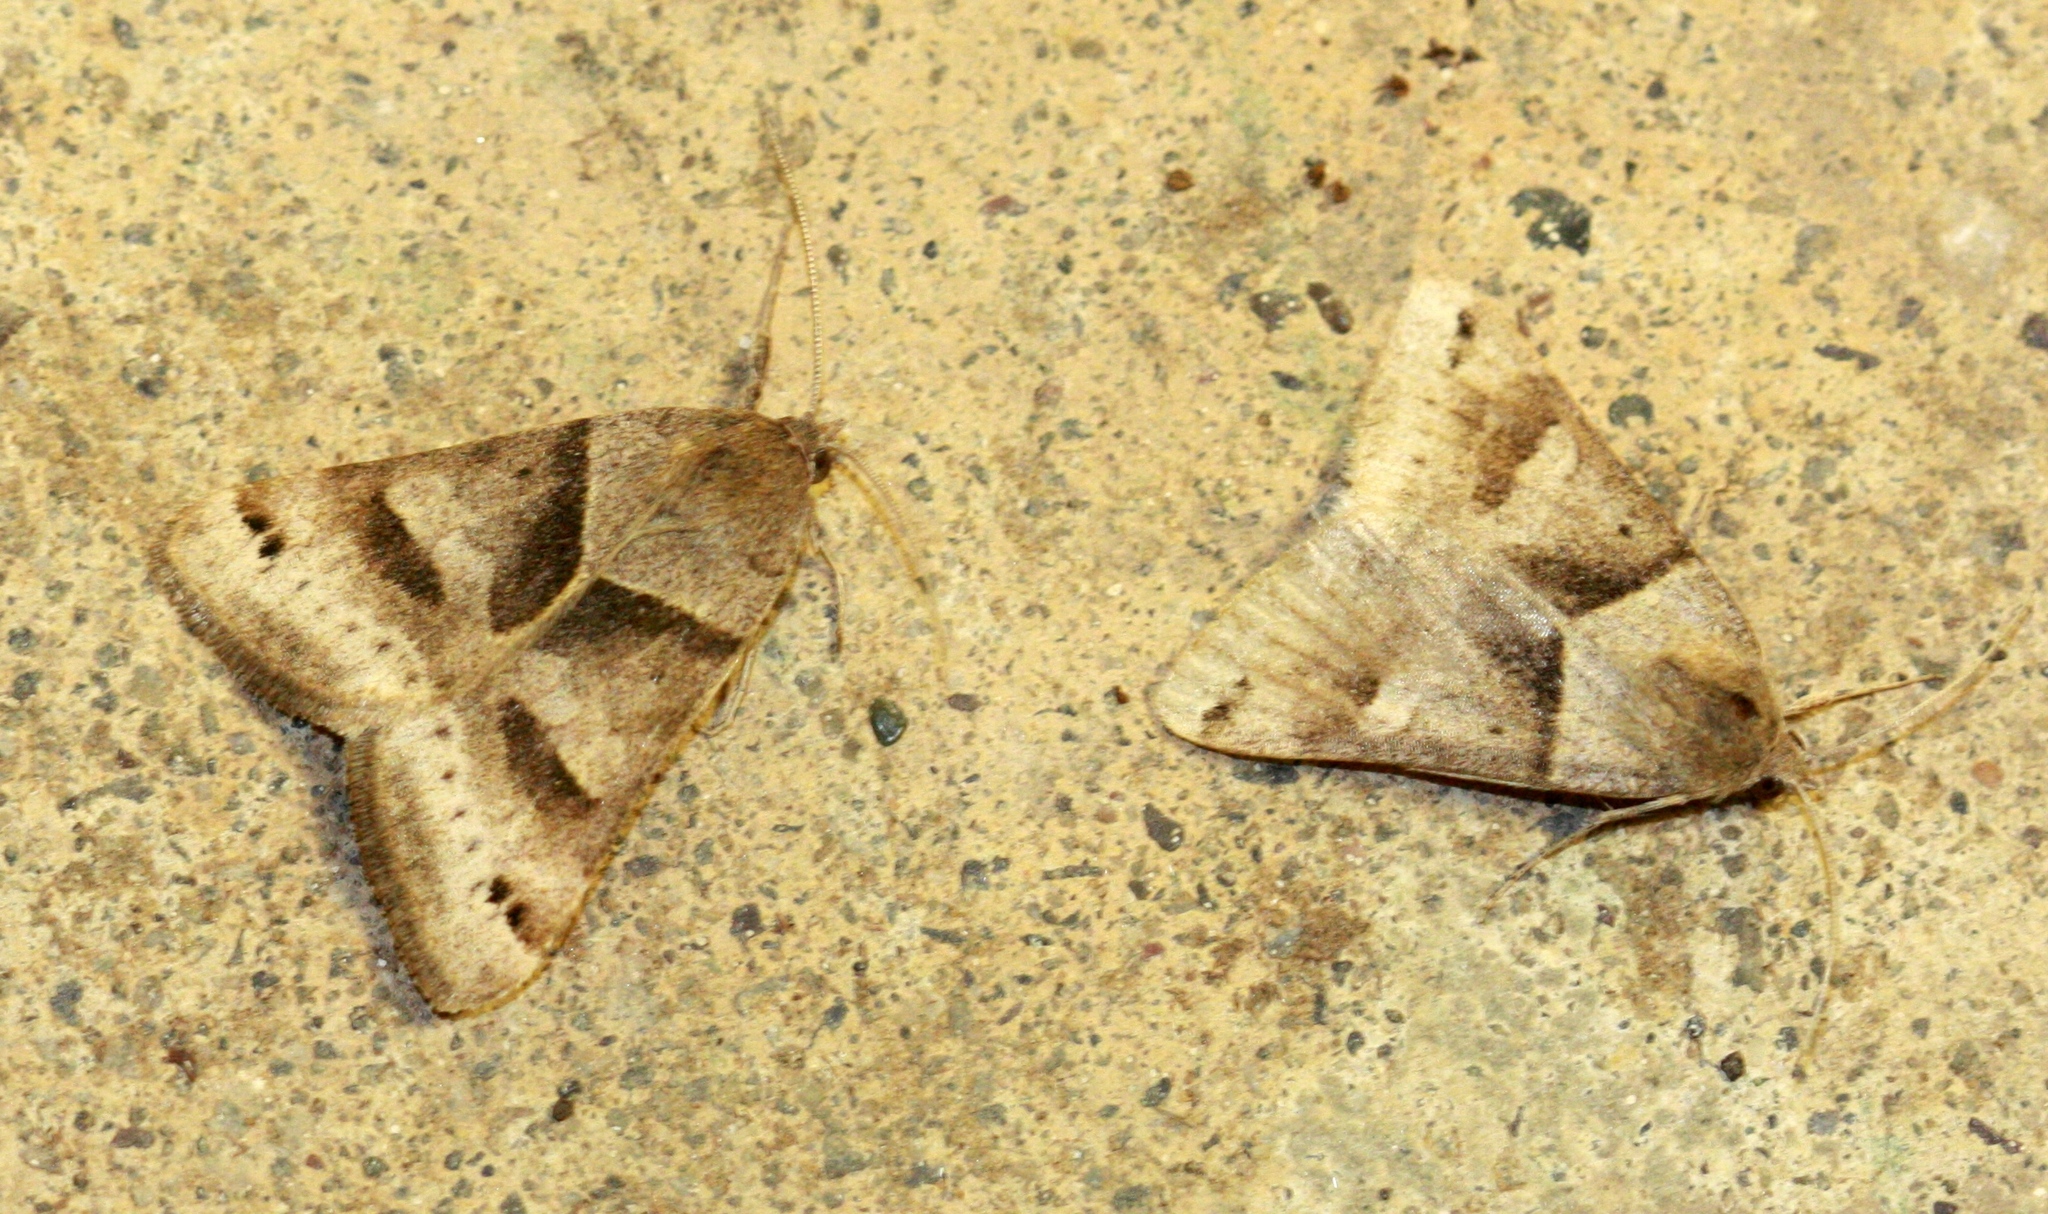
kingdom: Animalia
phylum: Arthropoda
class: Insecta
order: Lepidoptera
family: Erebidae
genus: Caenurgina
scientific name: Caenurgina erechtea
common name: Forage looper moth
